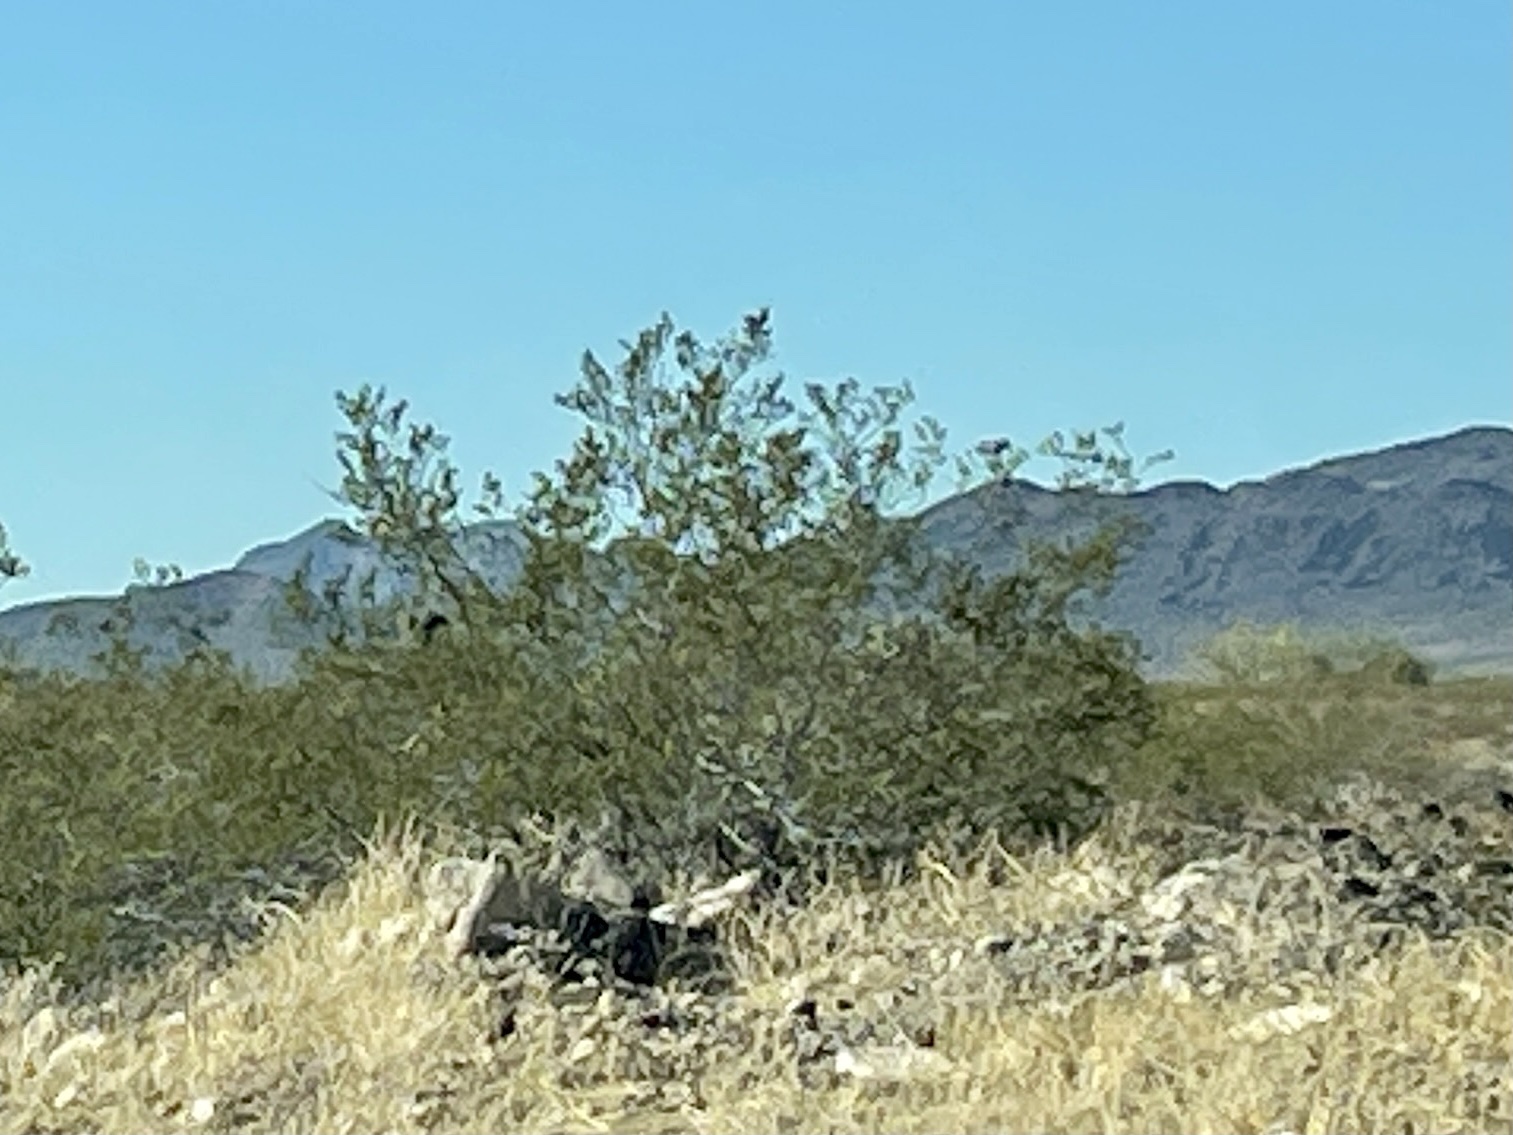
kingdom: Plantae
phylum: Tracheophyta
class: Magnoliopsida
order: Zygophyllales
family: Zygophyllaceae
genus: Larrea
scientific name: Larrea tridentata
